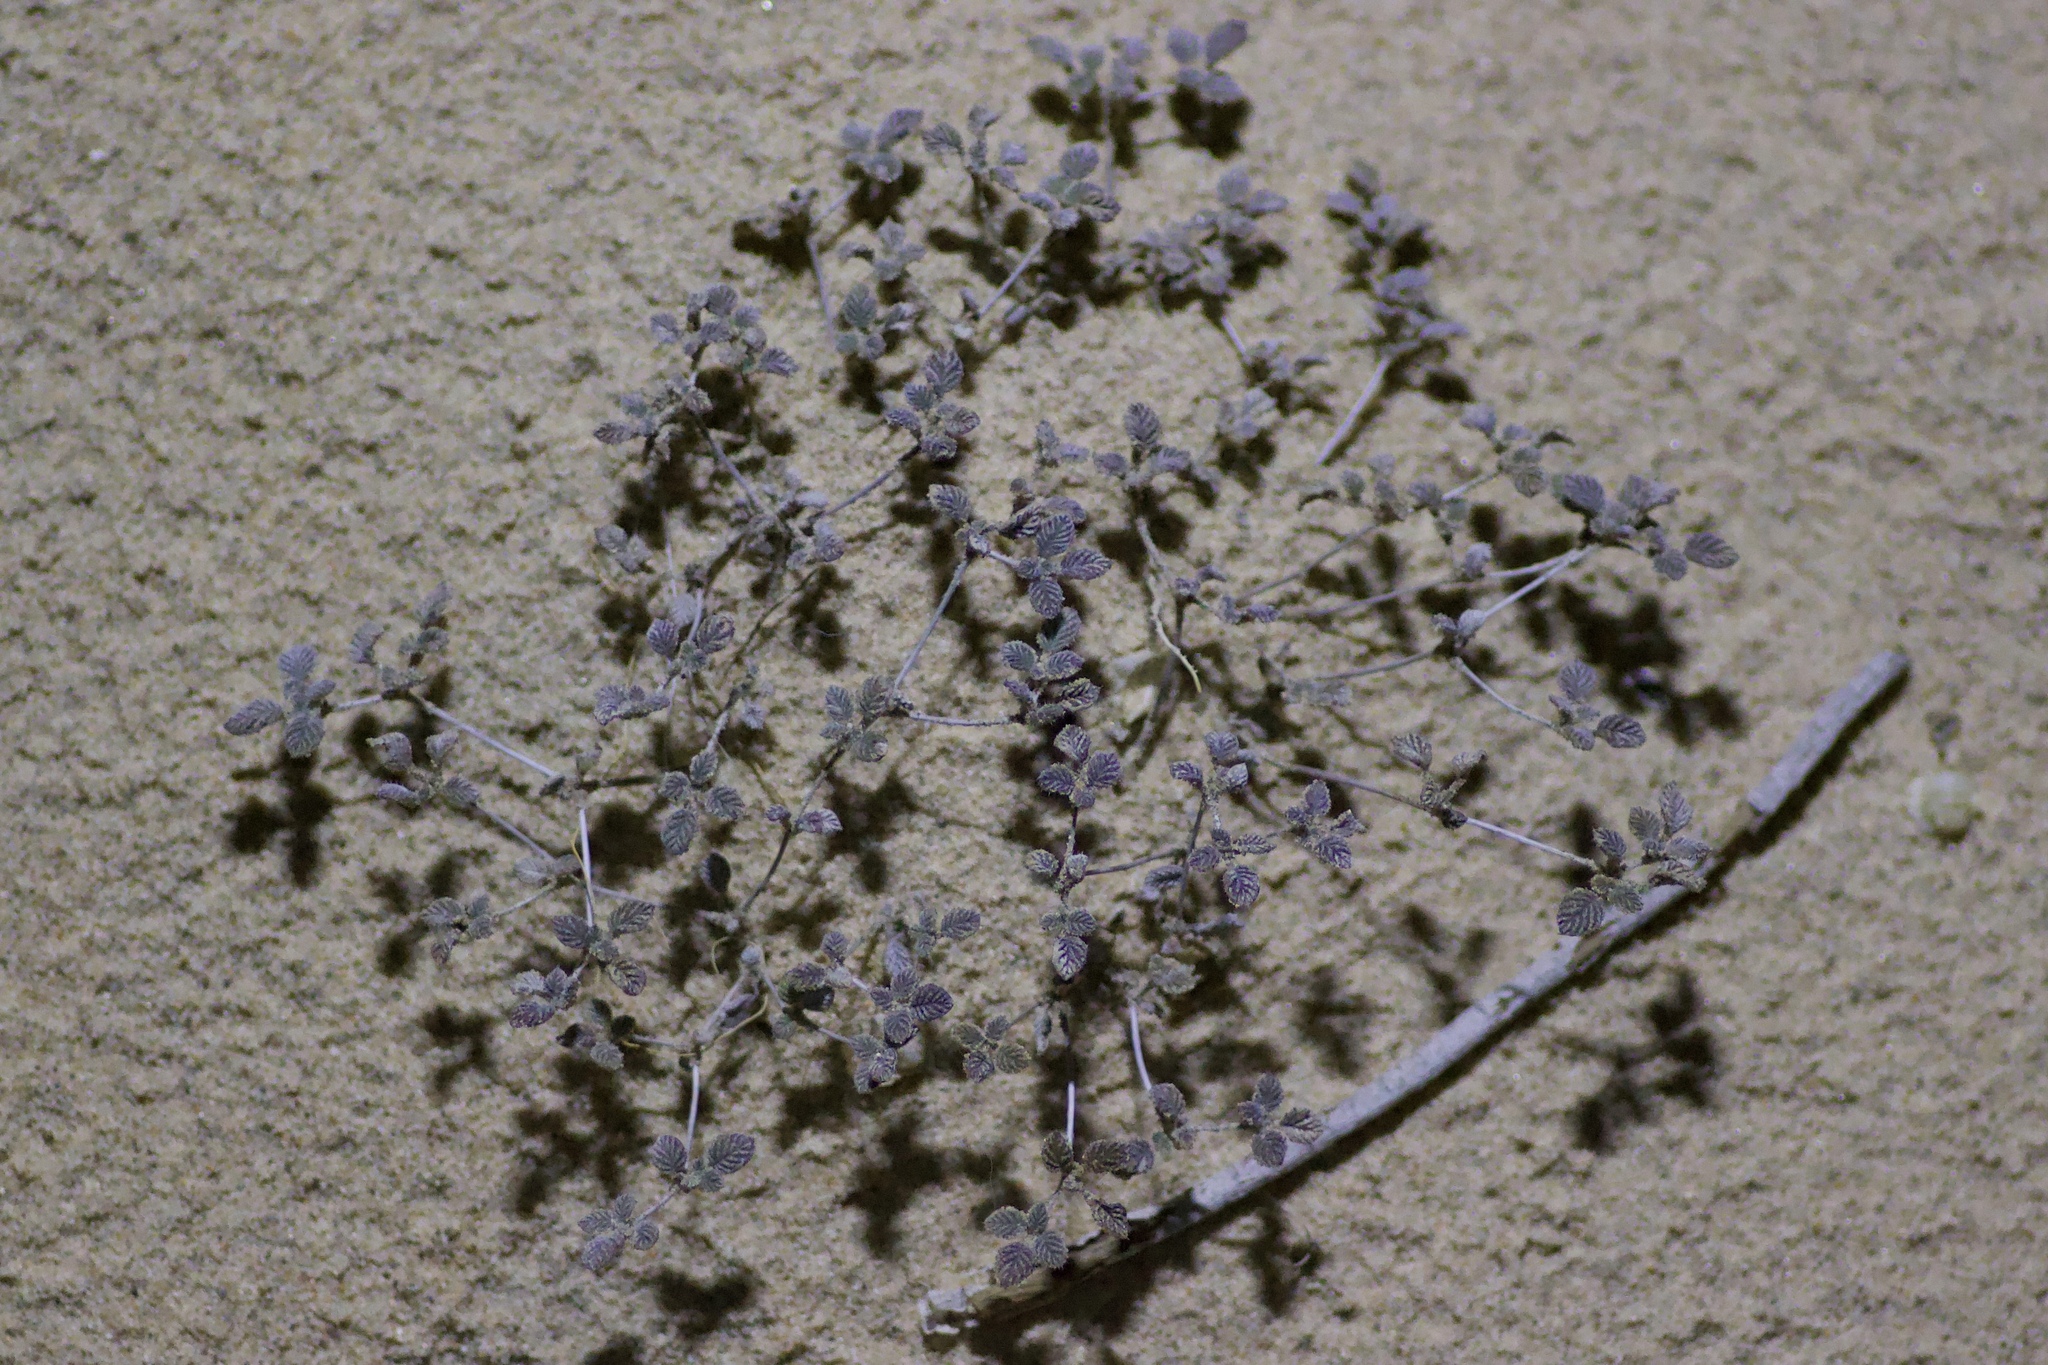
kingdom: Plantae
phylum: Tracheophyta
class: Magnoliopsida
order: Boraginales
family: Ehretiaceae
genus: Tiquilia
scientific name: Tiquilia plicata
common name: Fan-leaf tiquilia
